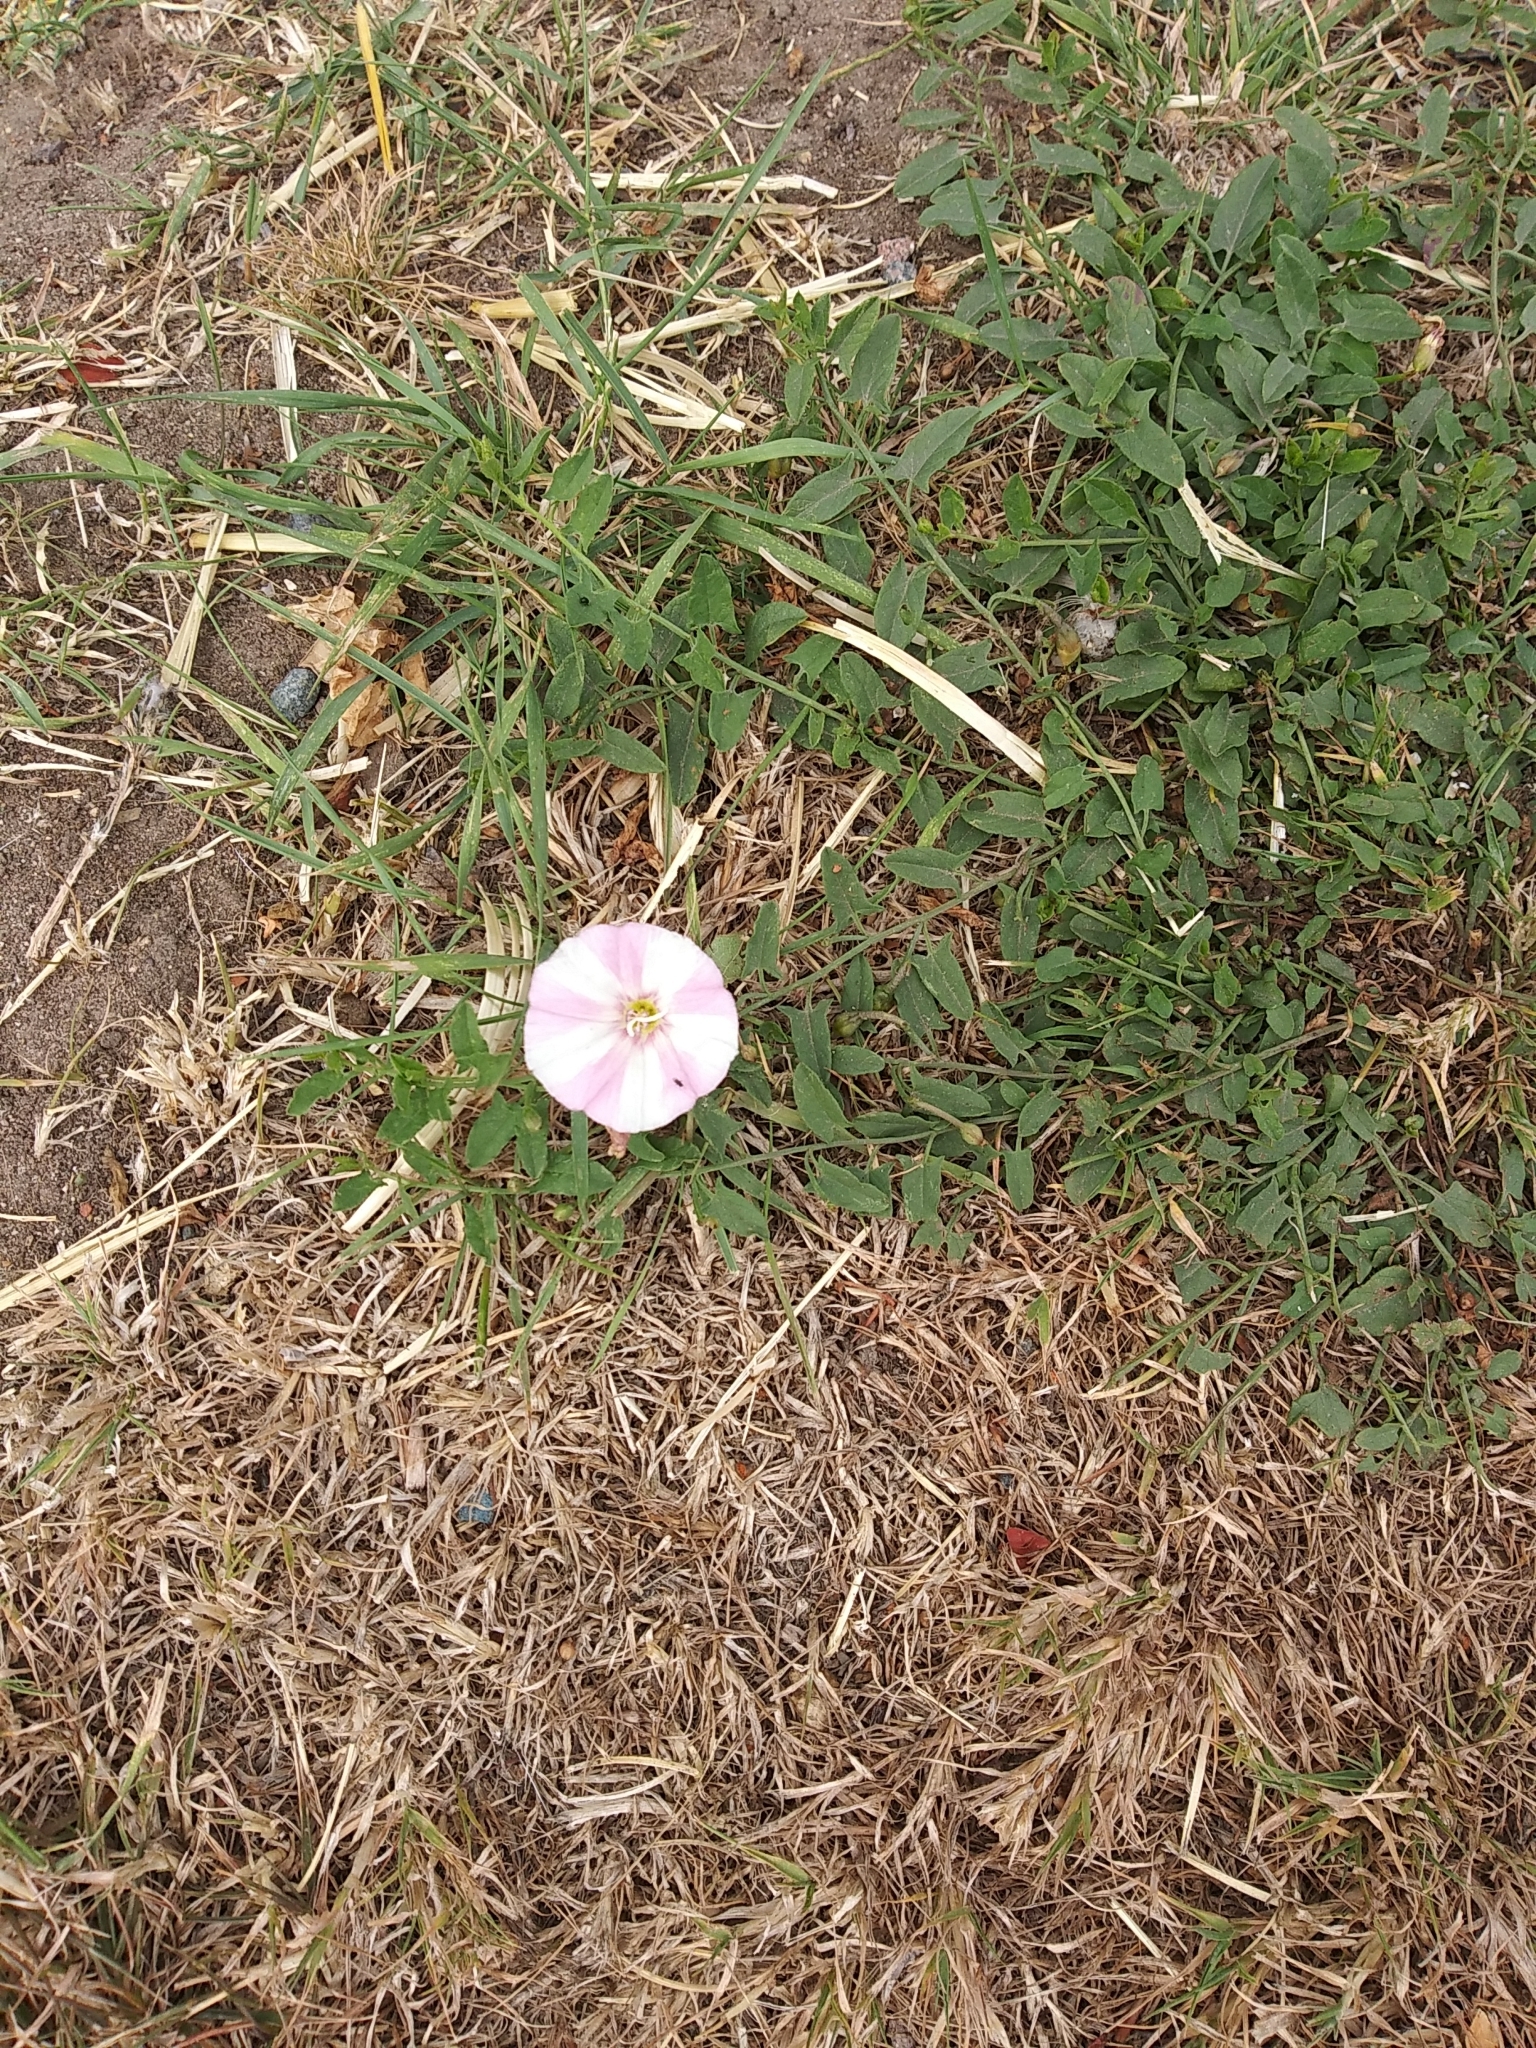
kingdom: Plantae
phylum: Tracheophyta
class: Magnoliopsida
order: Solanales
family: Convolvulaceae
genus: Convolvulus
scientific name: Convolvulus arvensis
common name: Field bindweed
